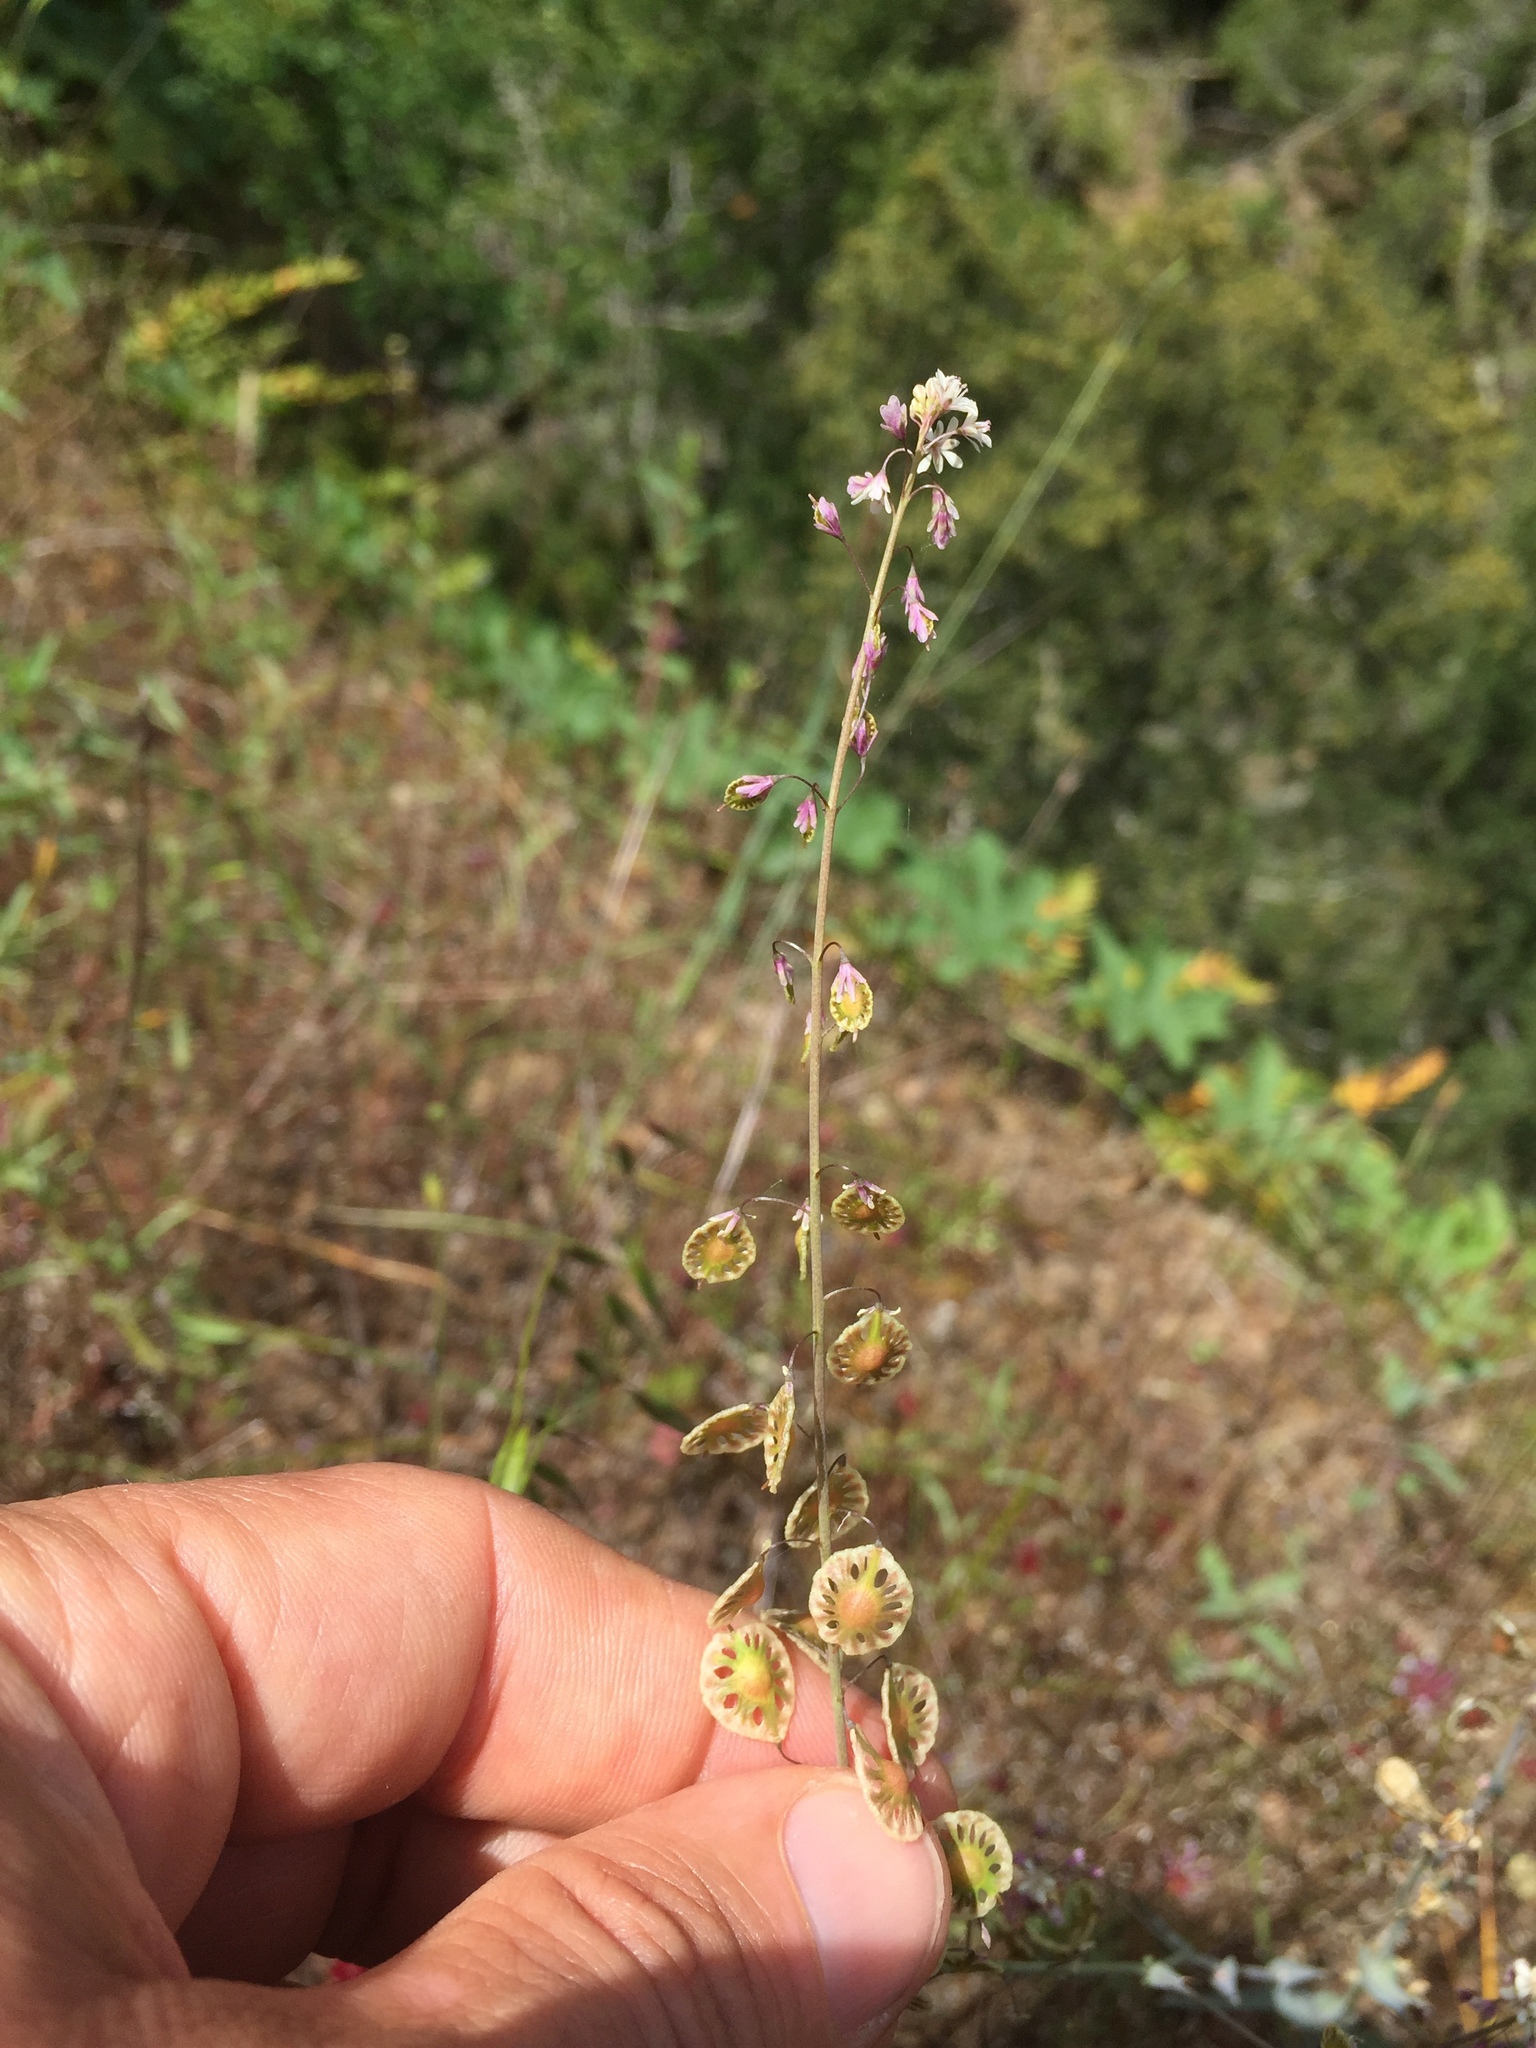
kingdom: Plantae
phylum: Tracheophyta
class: Magnoliopsida
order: Brassicales
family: Brassicaceae
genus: Thysanocarpus
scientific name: Thysanocarpus curvipes
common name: Sand fringepod
